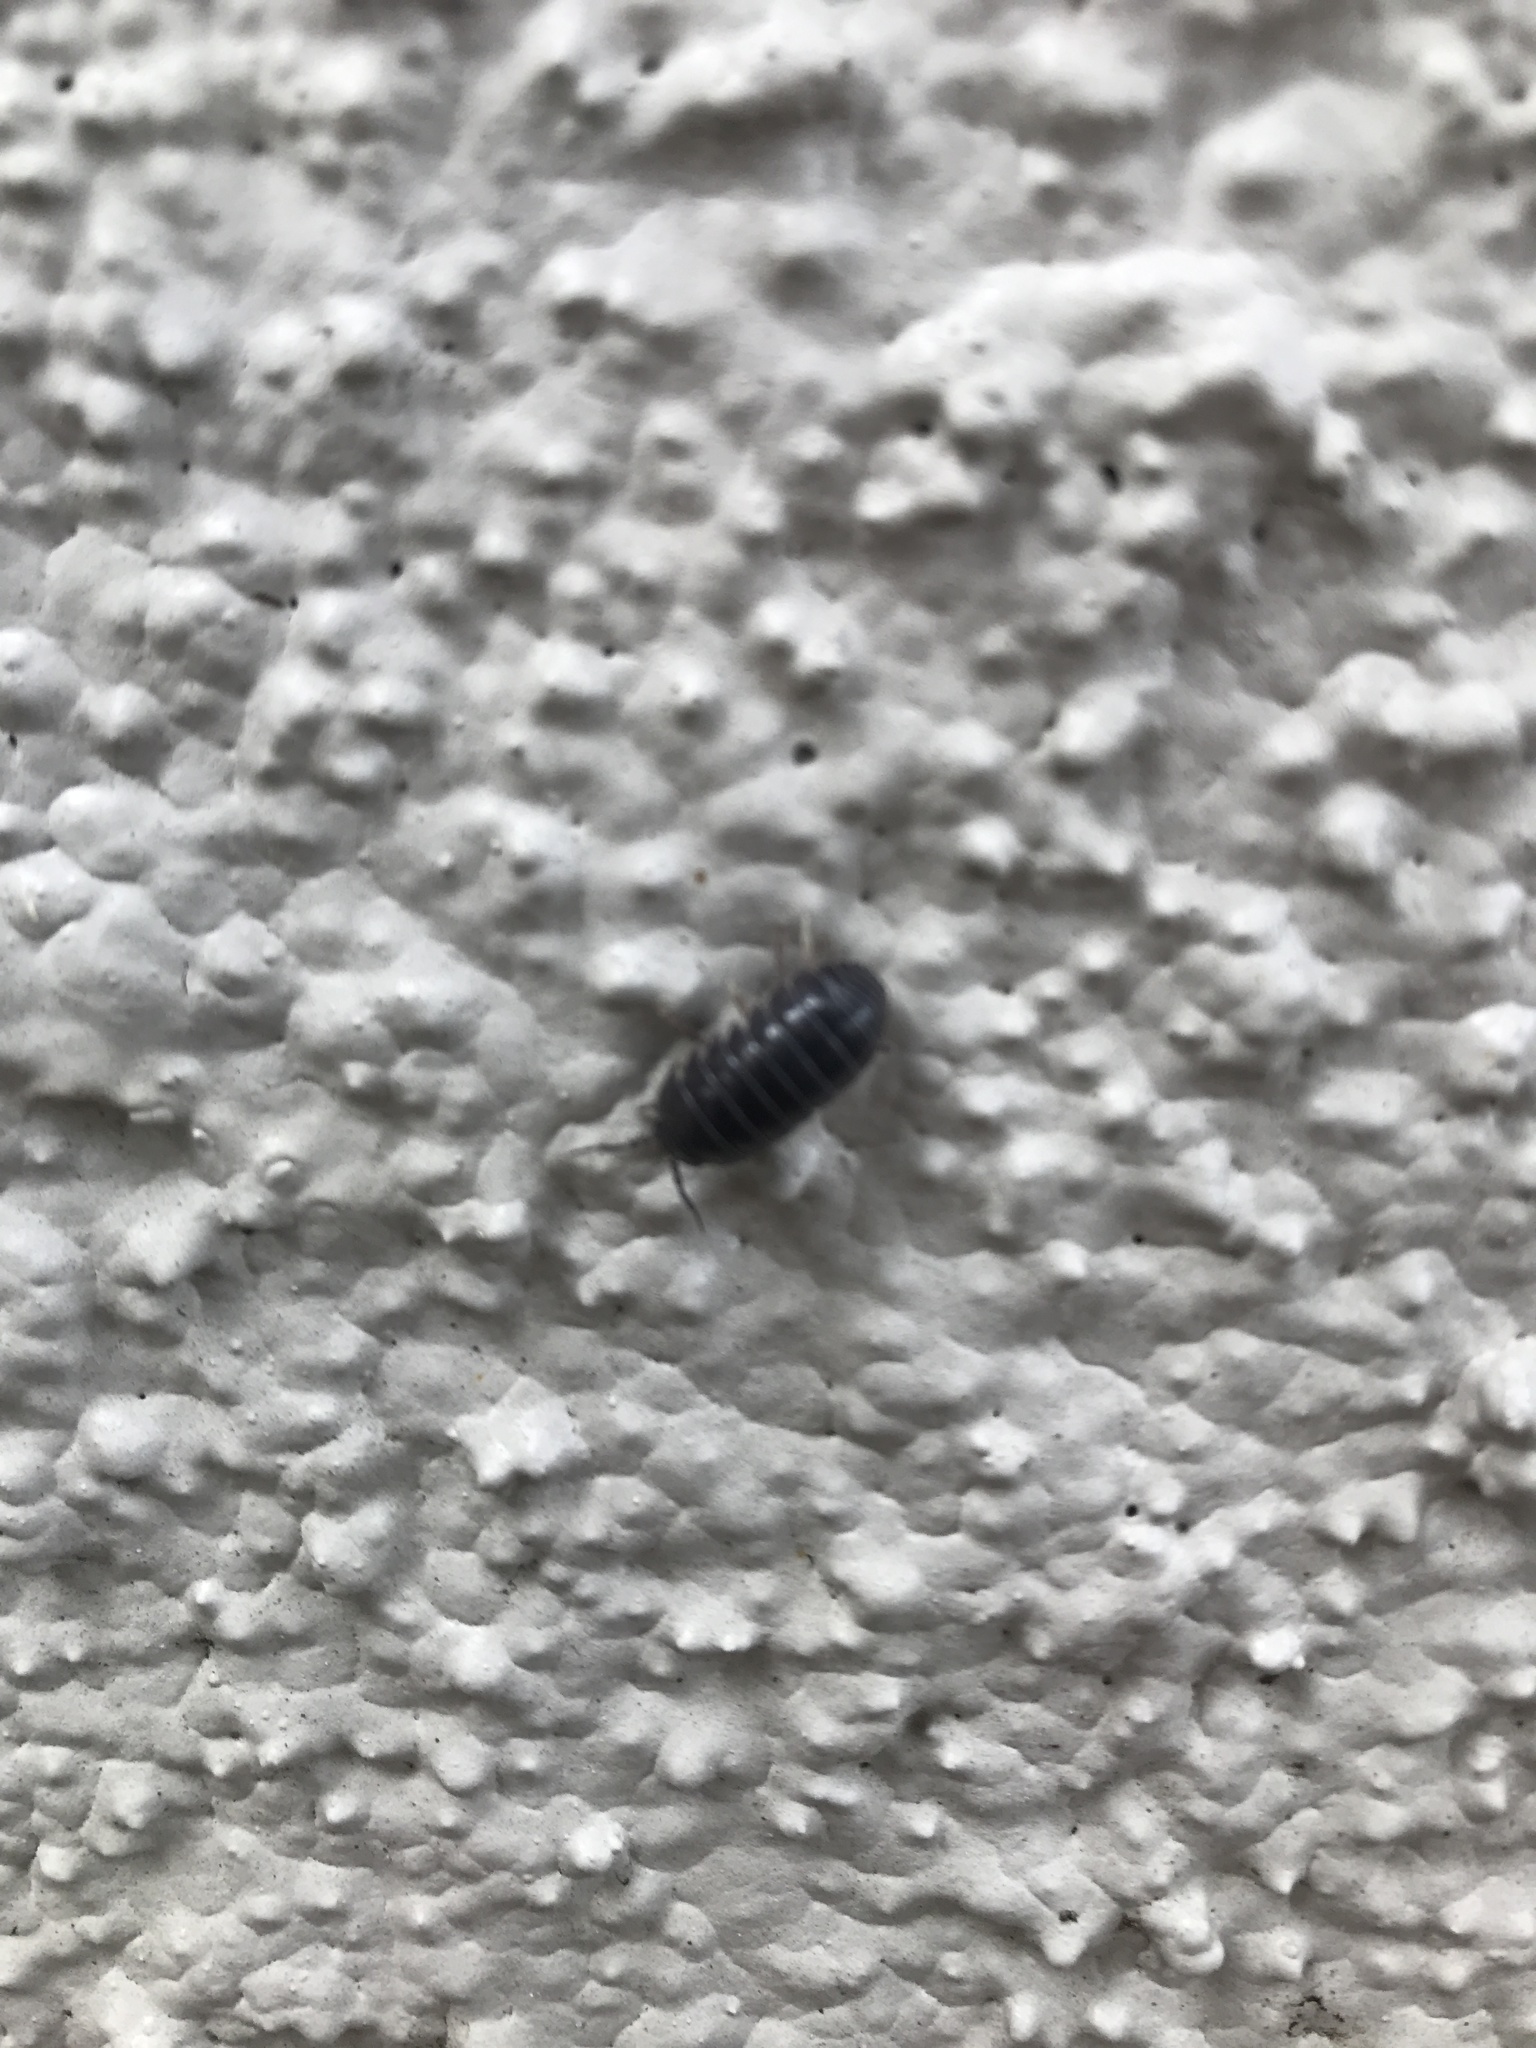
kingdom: Animalia
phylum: Arthropoda
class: Malacostraca
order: Isopoda
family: Armadillidiidae
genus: Armadillidium
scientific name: Armadillidium vulgare
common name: Common pill woodlouse
